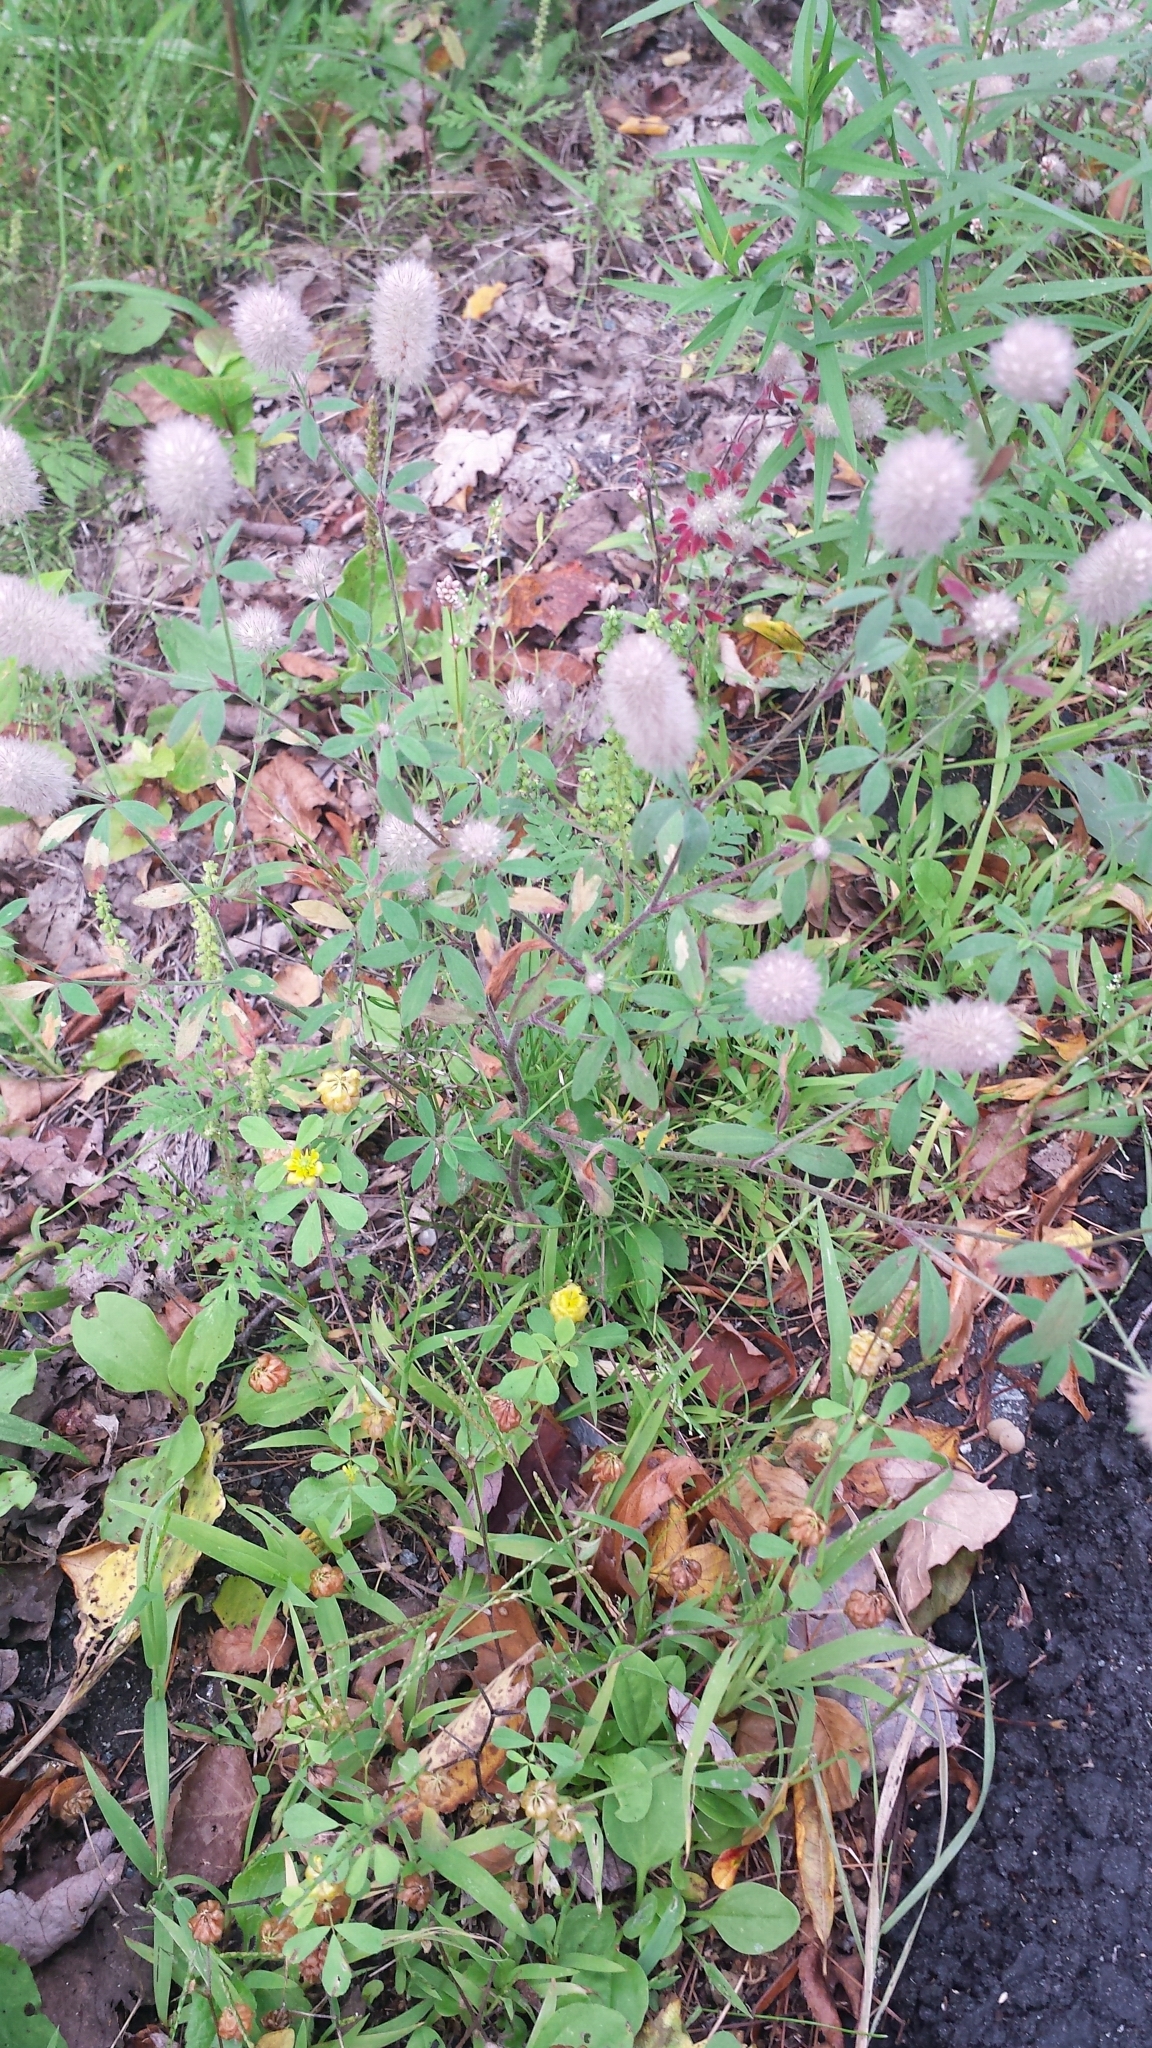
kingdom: Plantae
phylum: Tracheophyta
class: Magnoliopsida
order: Fabales
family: Fabaceae
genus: Trifolium
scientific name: Trifolium arvense
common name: Hare's-foot clover
